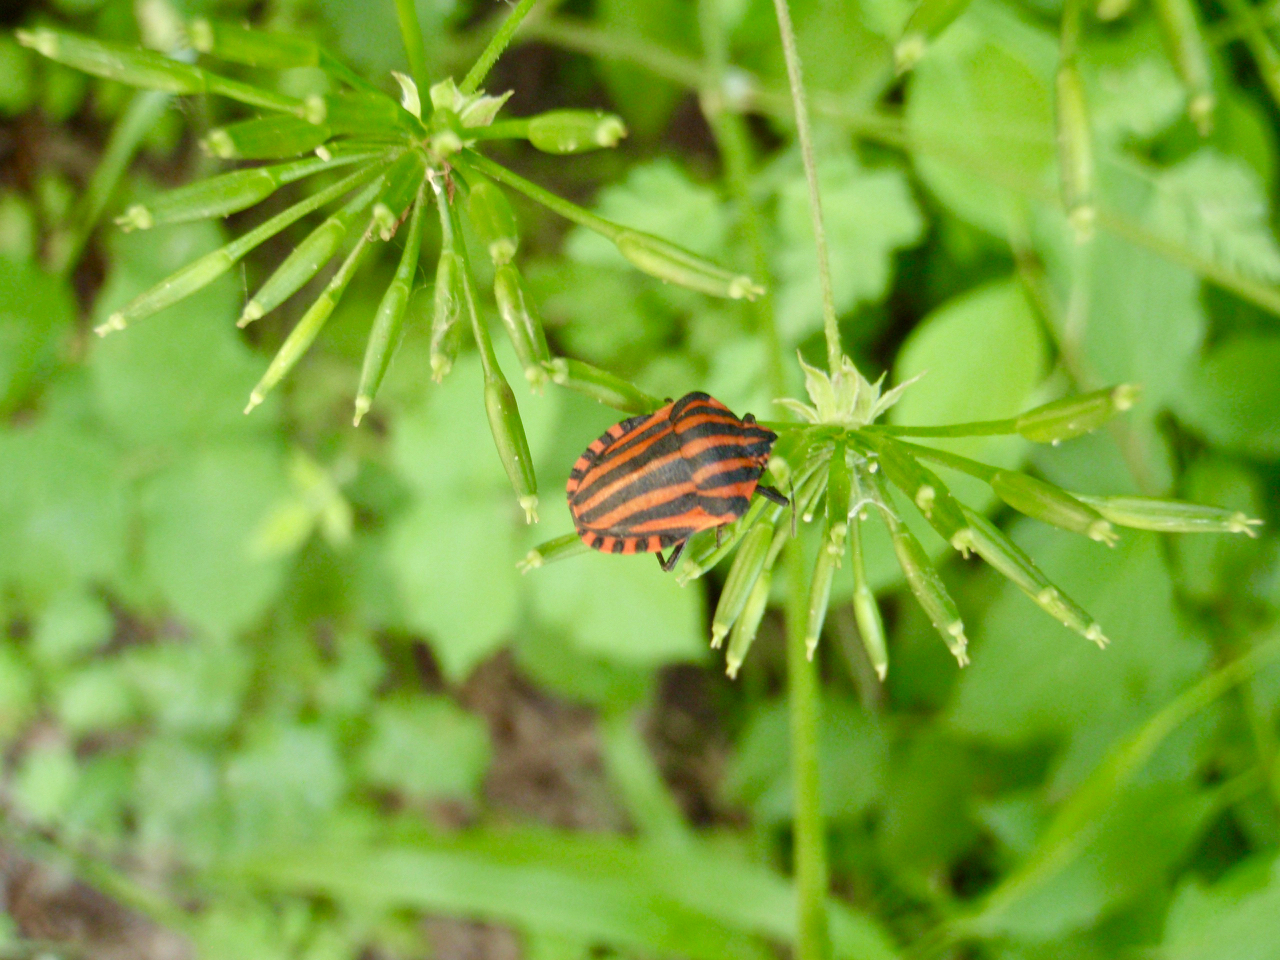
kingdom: Animalia
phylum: Arthropoda
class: Insecta
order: Hemiptera
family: Pentatomidae
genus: Graphosoma
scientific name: Graphosoma italicum
